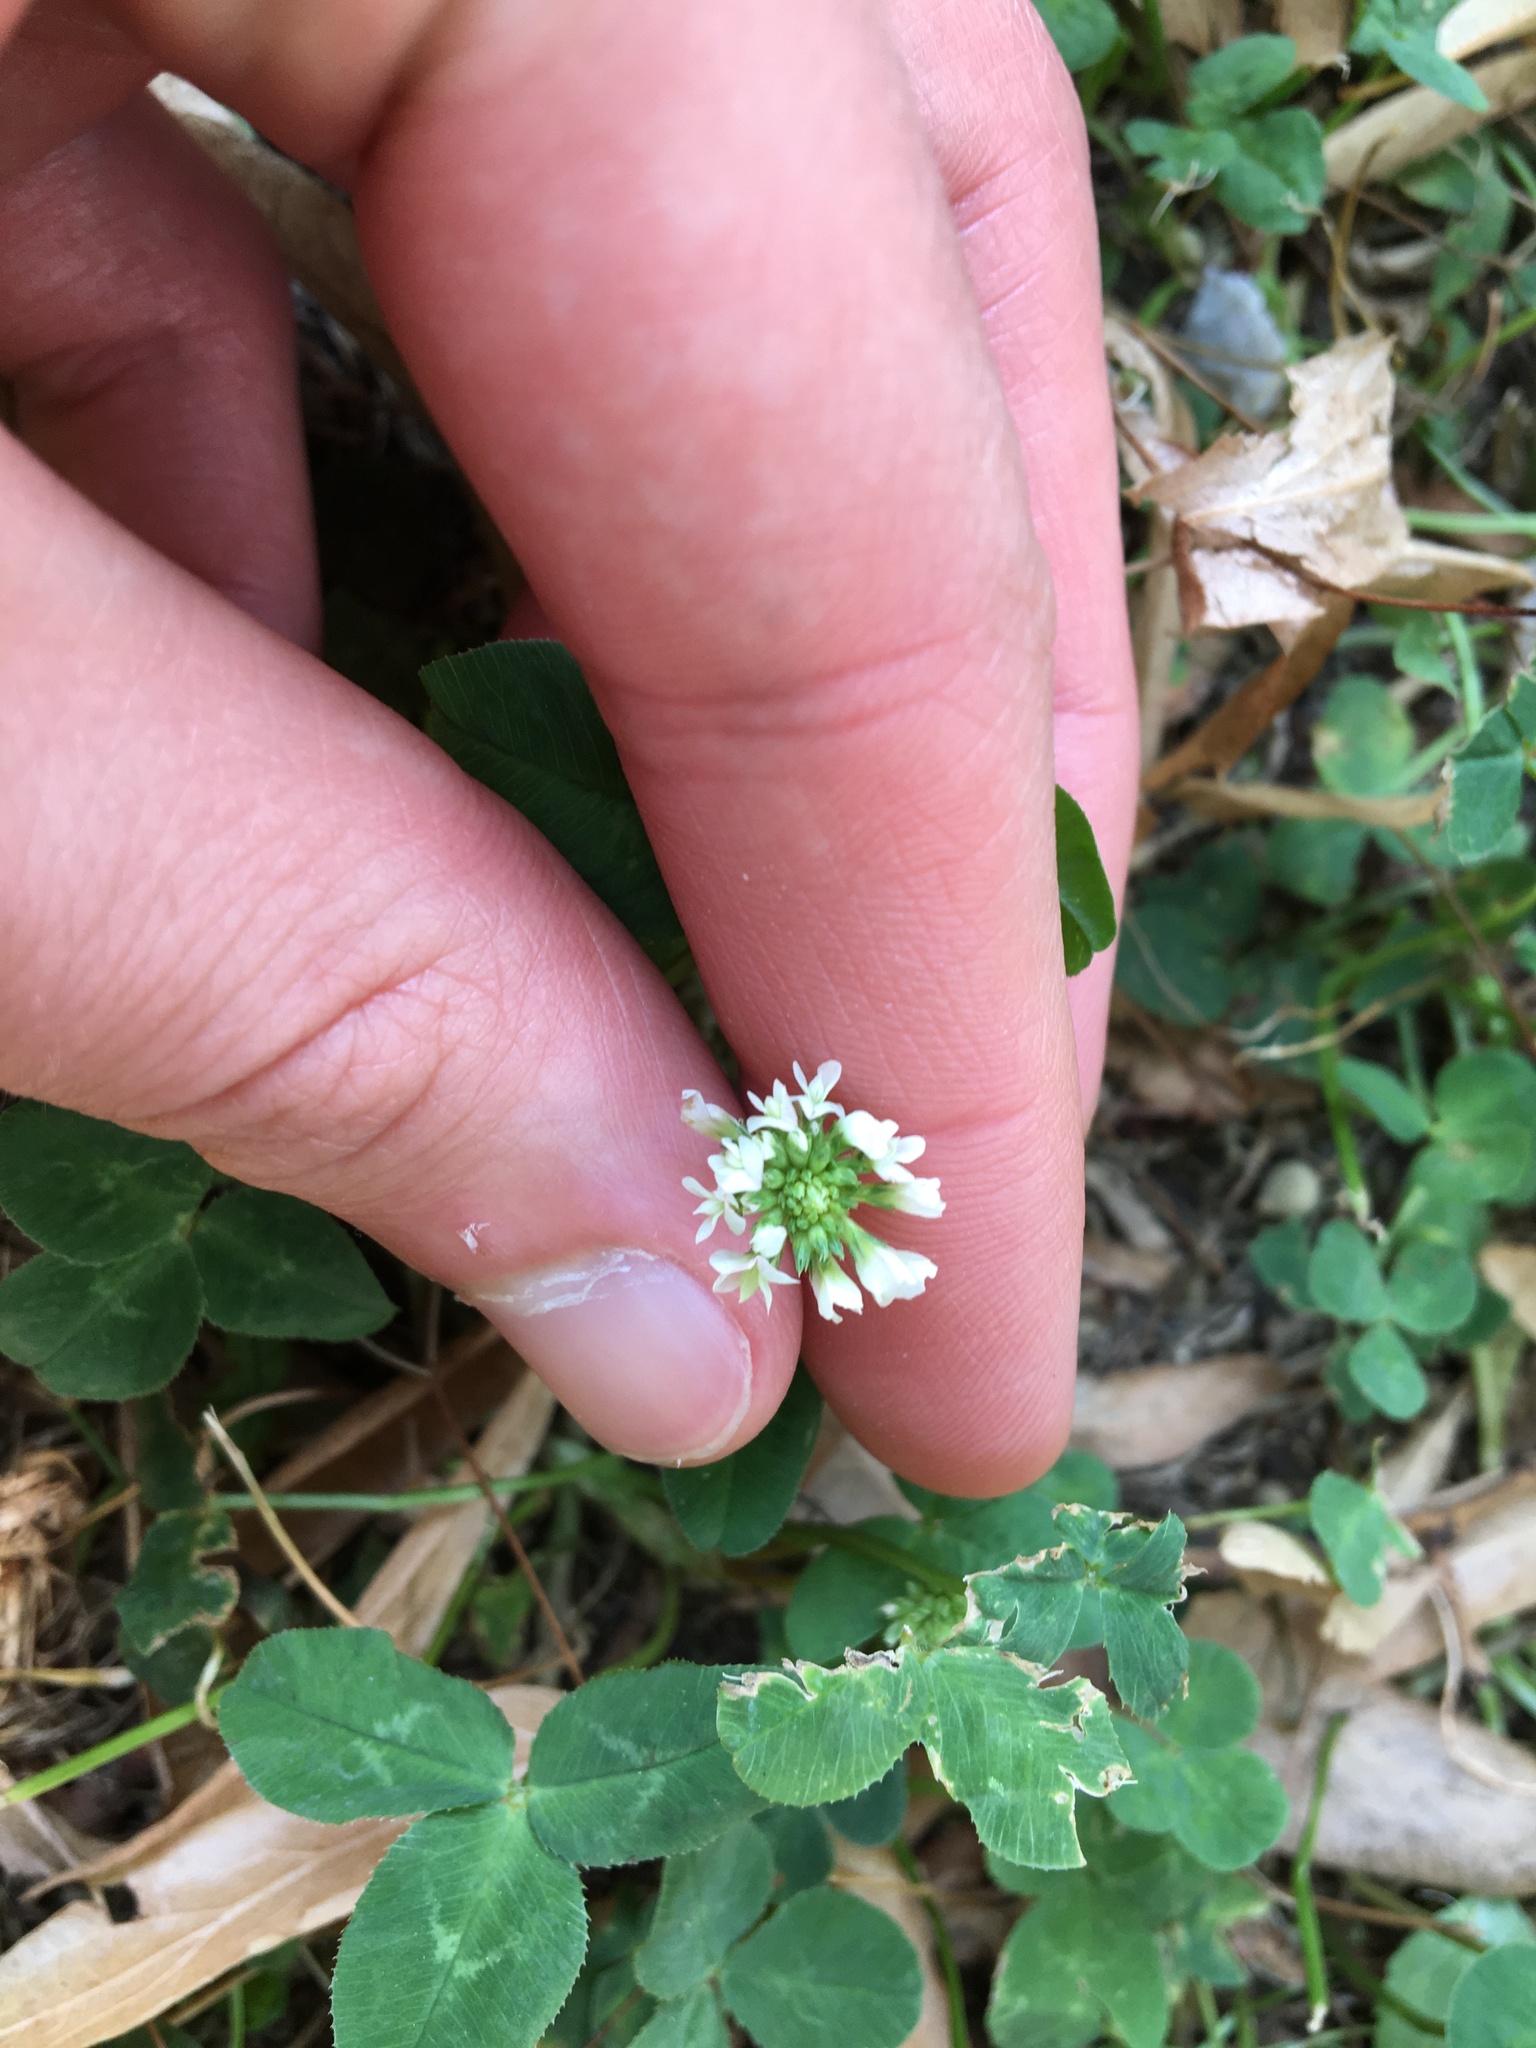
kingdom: Plantae
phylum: Tracheophyta
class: Magnoliopsida
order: Fabales
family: Fabaceae
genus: Trifolium
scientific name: Trifolium repens
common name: White clover
